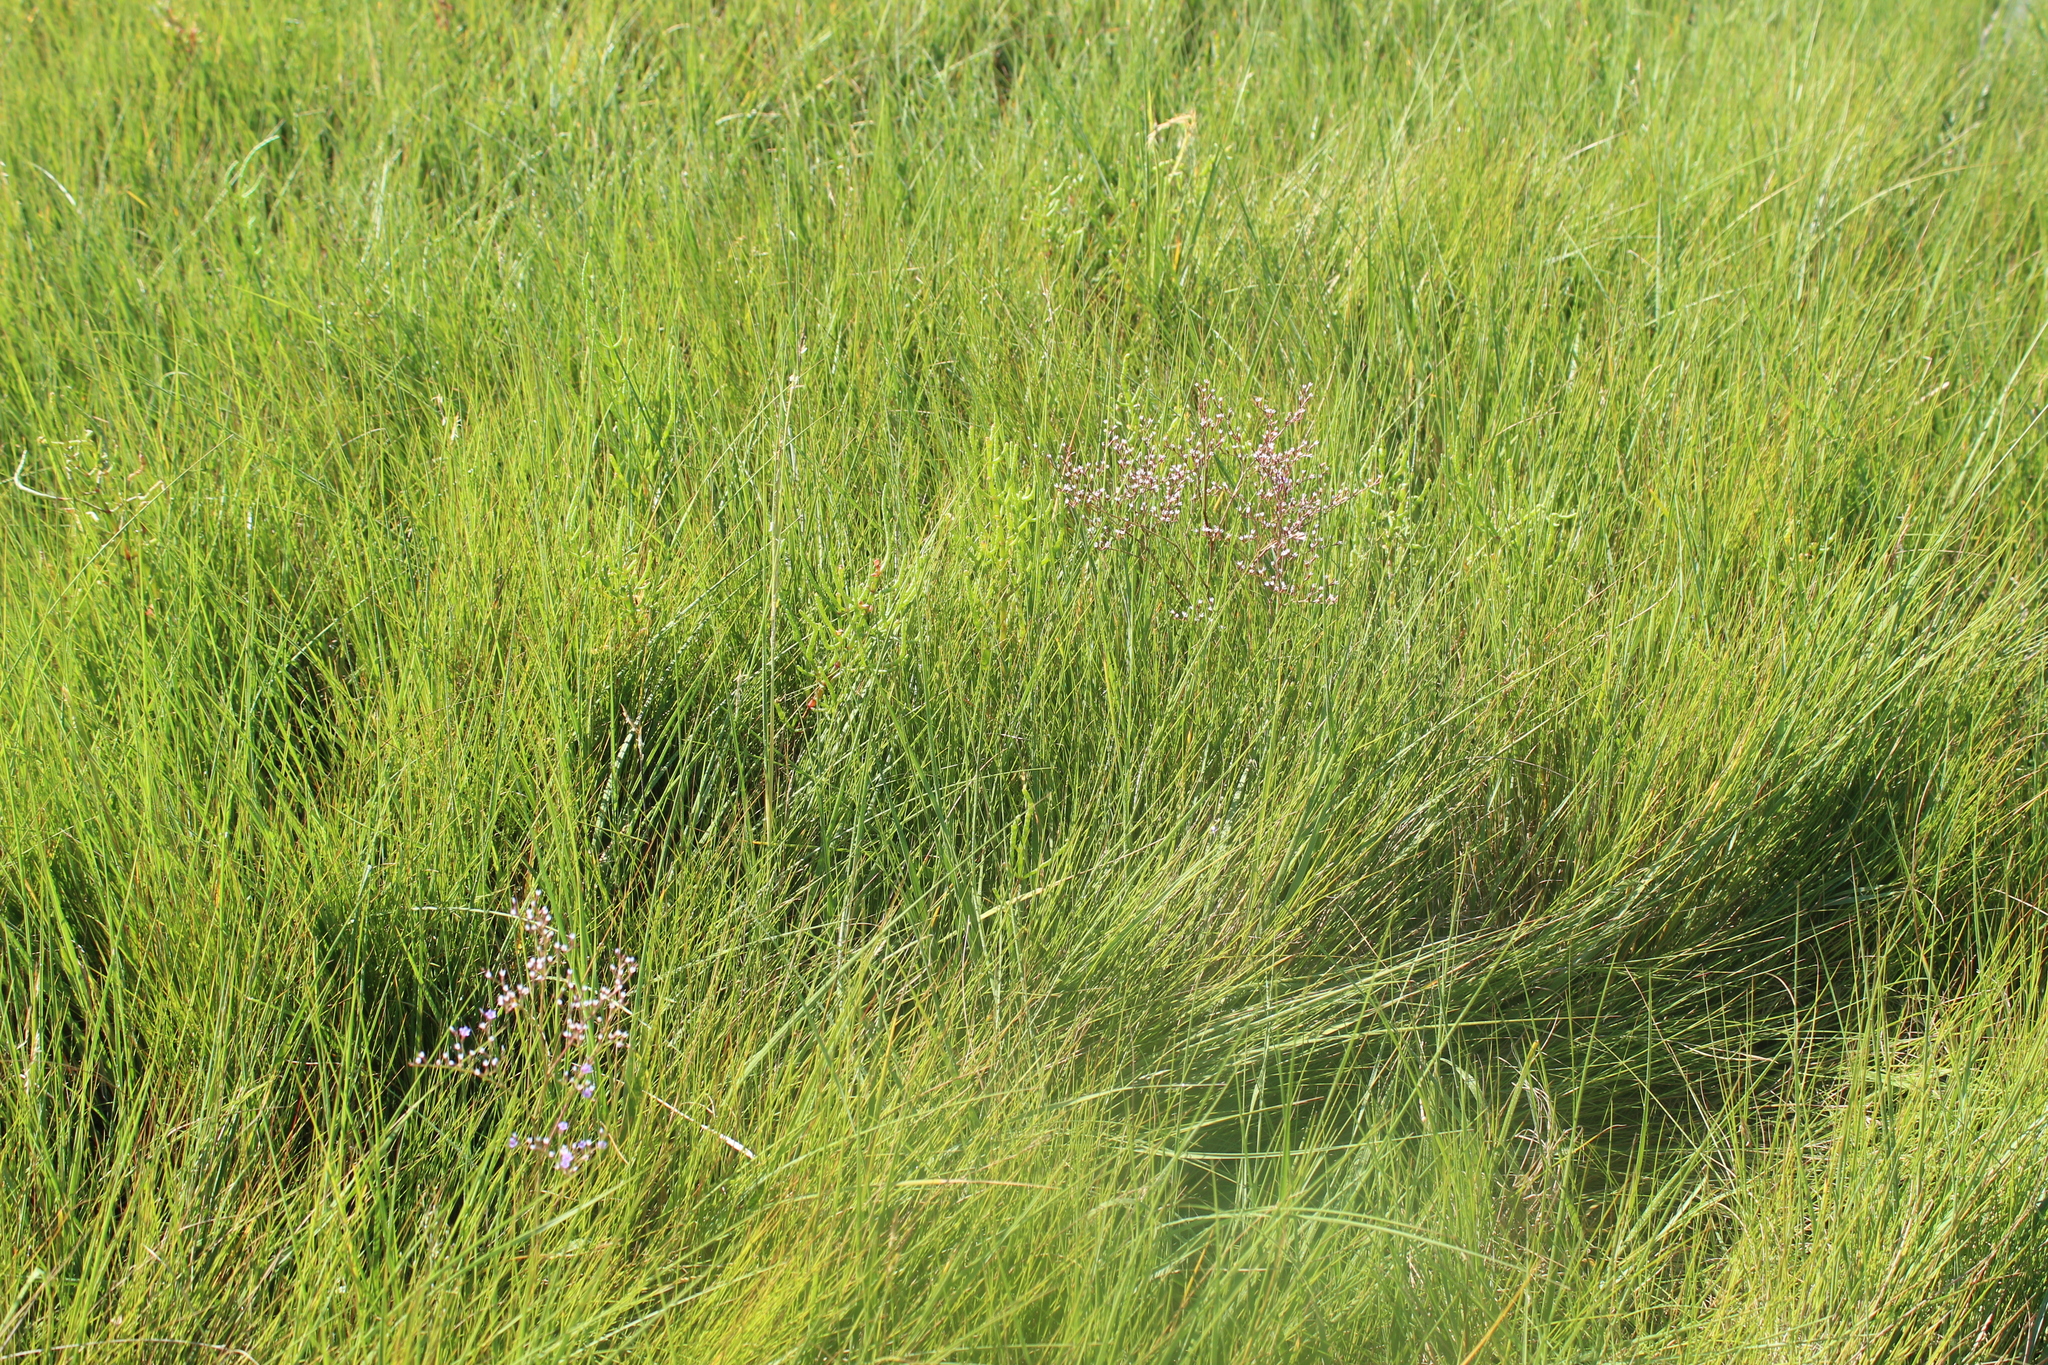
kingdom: Plantae
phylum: Tracheophyta
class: Magnoliopsida
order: Caryophyllales
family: Plumbaginaceae
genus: Limonium
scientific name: Limonium carolinianum
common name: Carolina sea lavender
